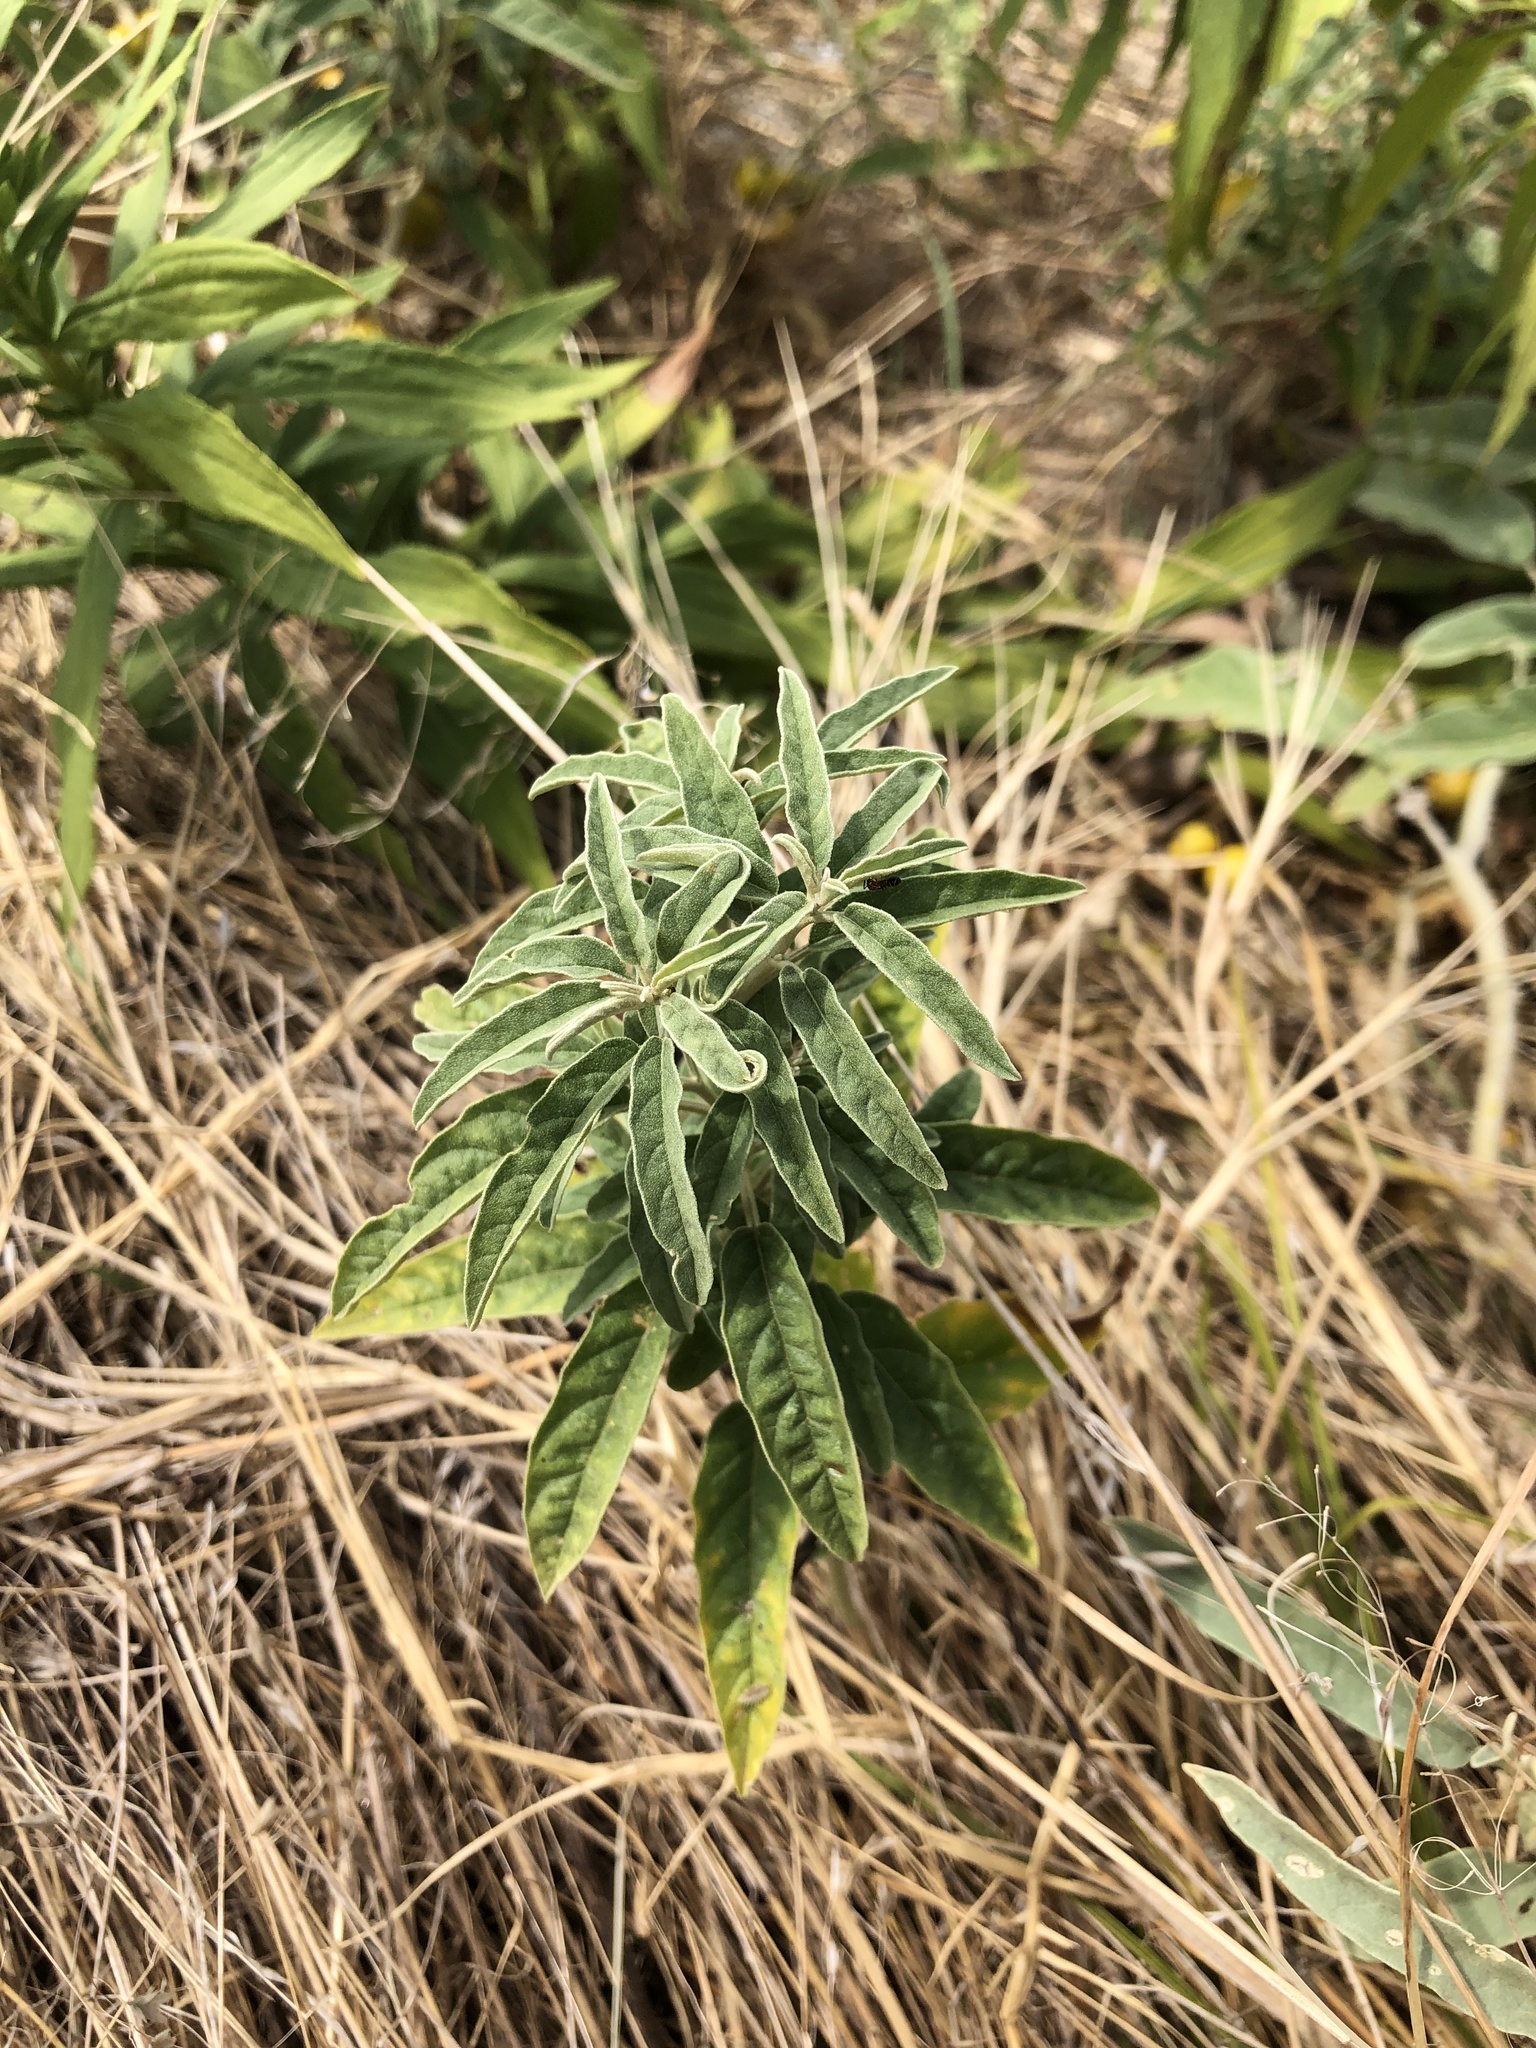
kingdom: Plantae
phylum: Tracheophyta
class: Magnoliopsida
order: Solanales
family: Solanaceae
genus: Solanum
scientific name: Solanum elaeagnifolium
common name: Silverleaf nightshade
